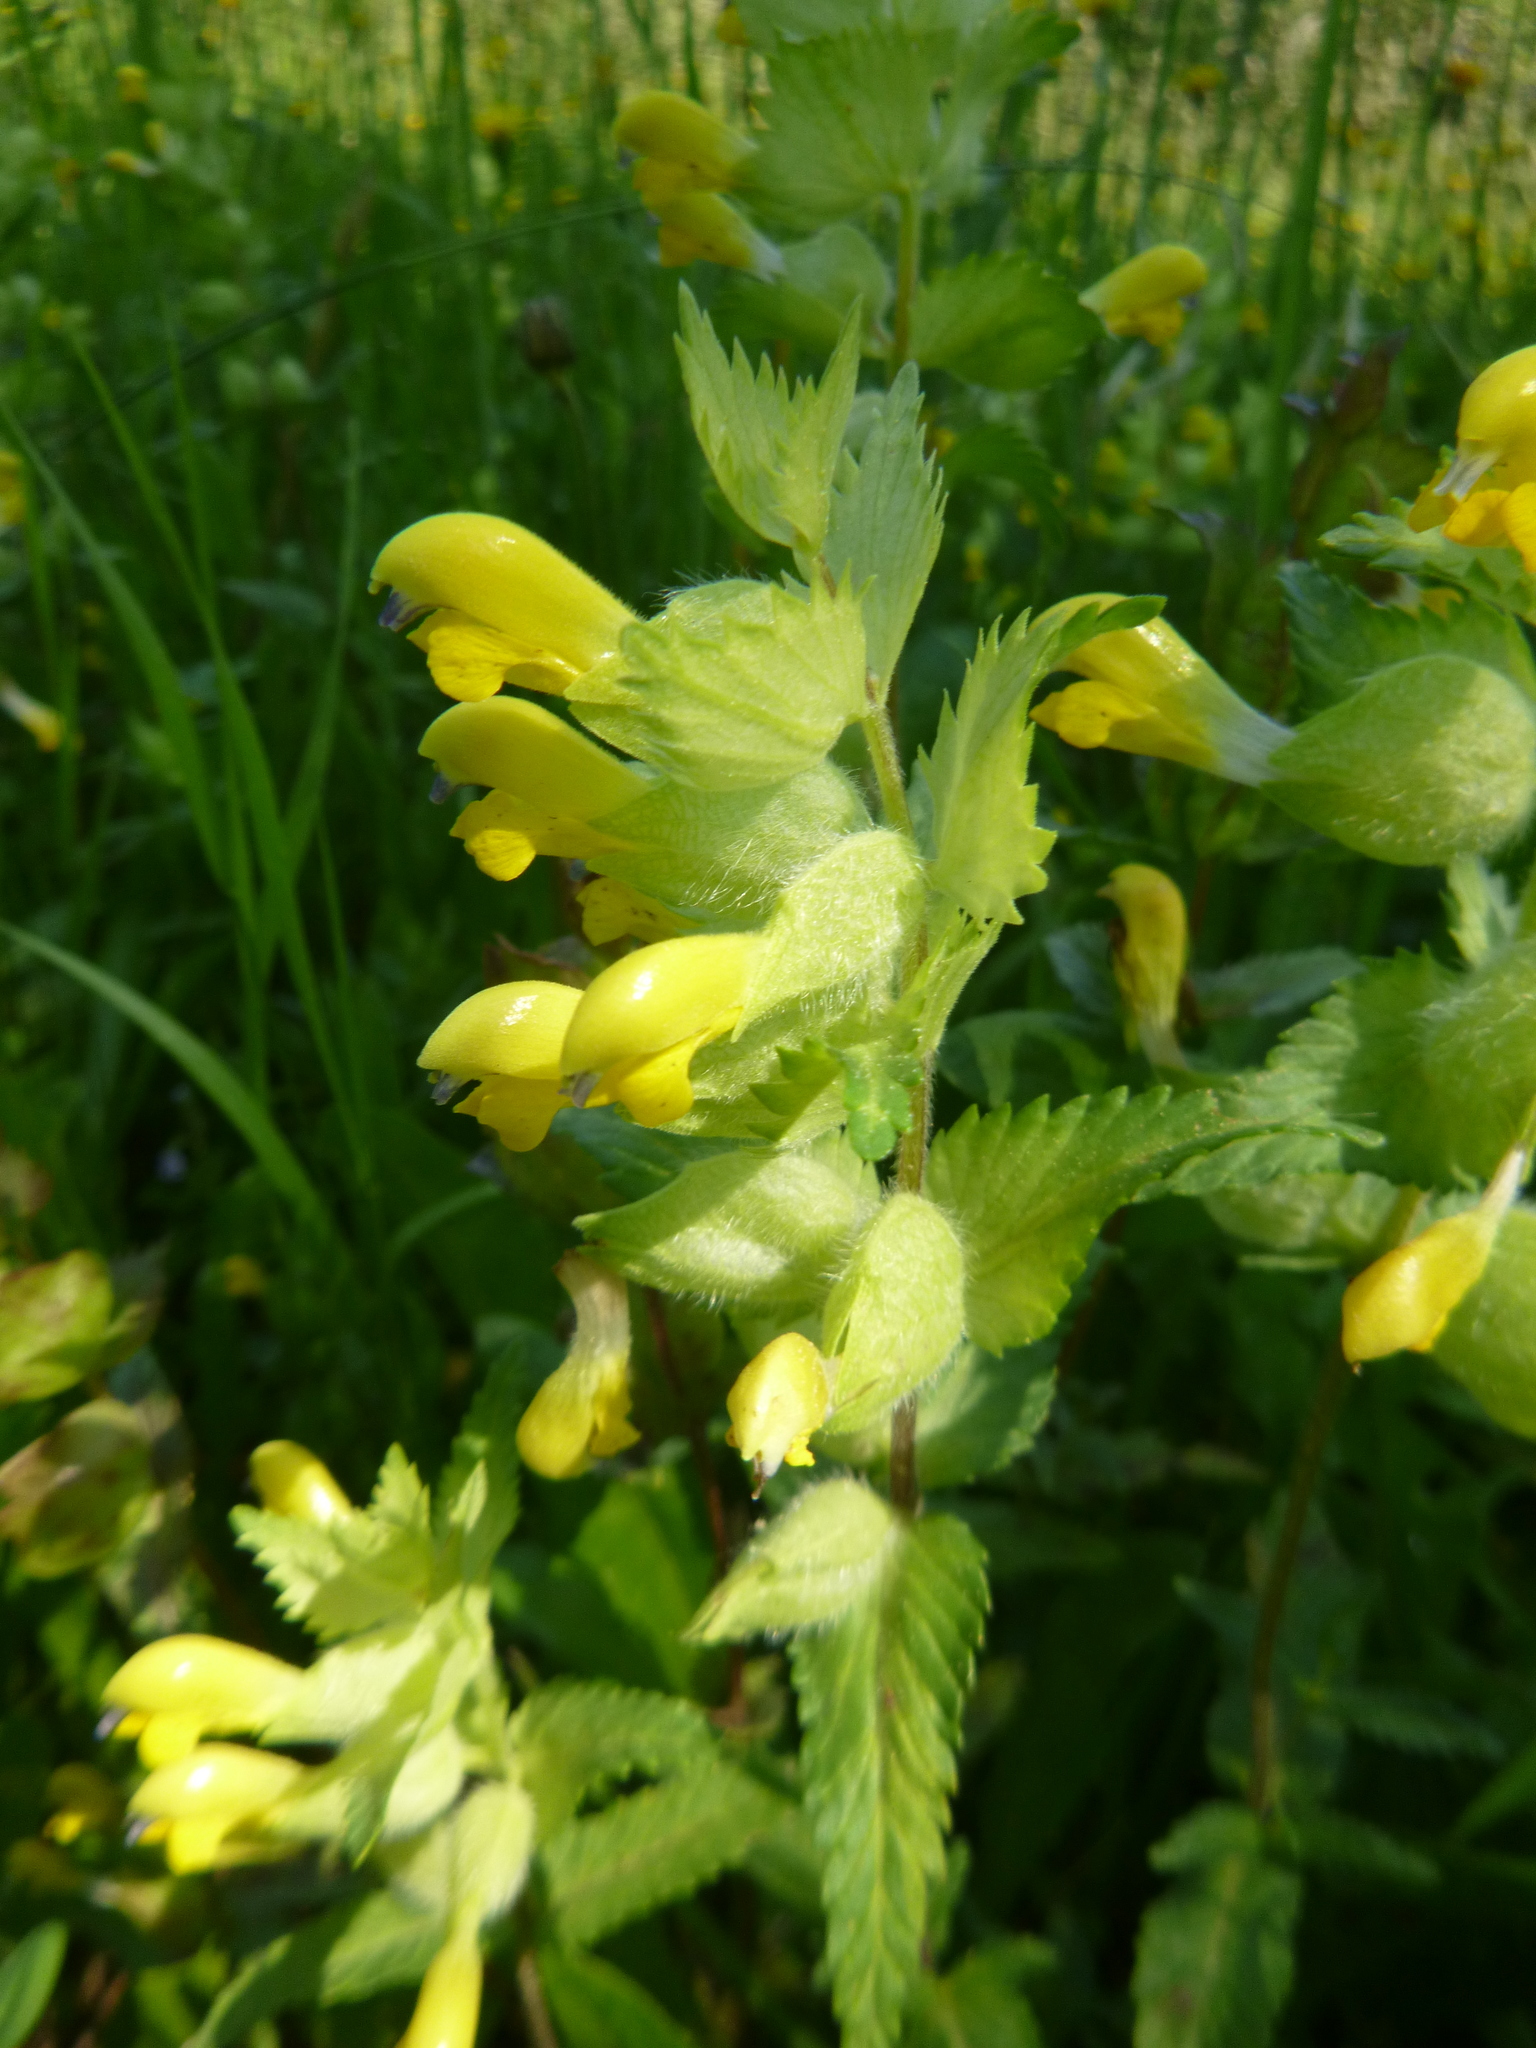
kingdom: Plantae
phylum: Tracheophyta
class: Magnoliopsida
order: Lamiales
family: Orobanchaceae
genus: Rhinanthus
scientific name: Rhinanthus alectorolophus
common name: Greater yellow-rattle
